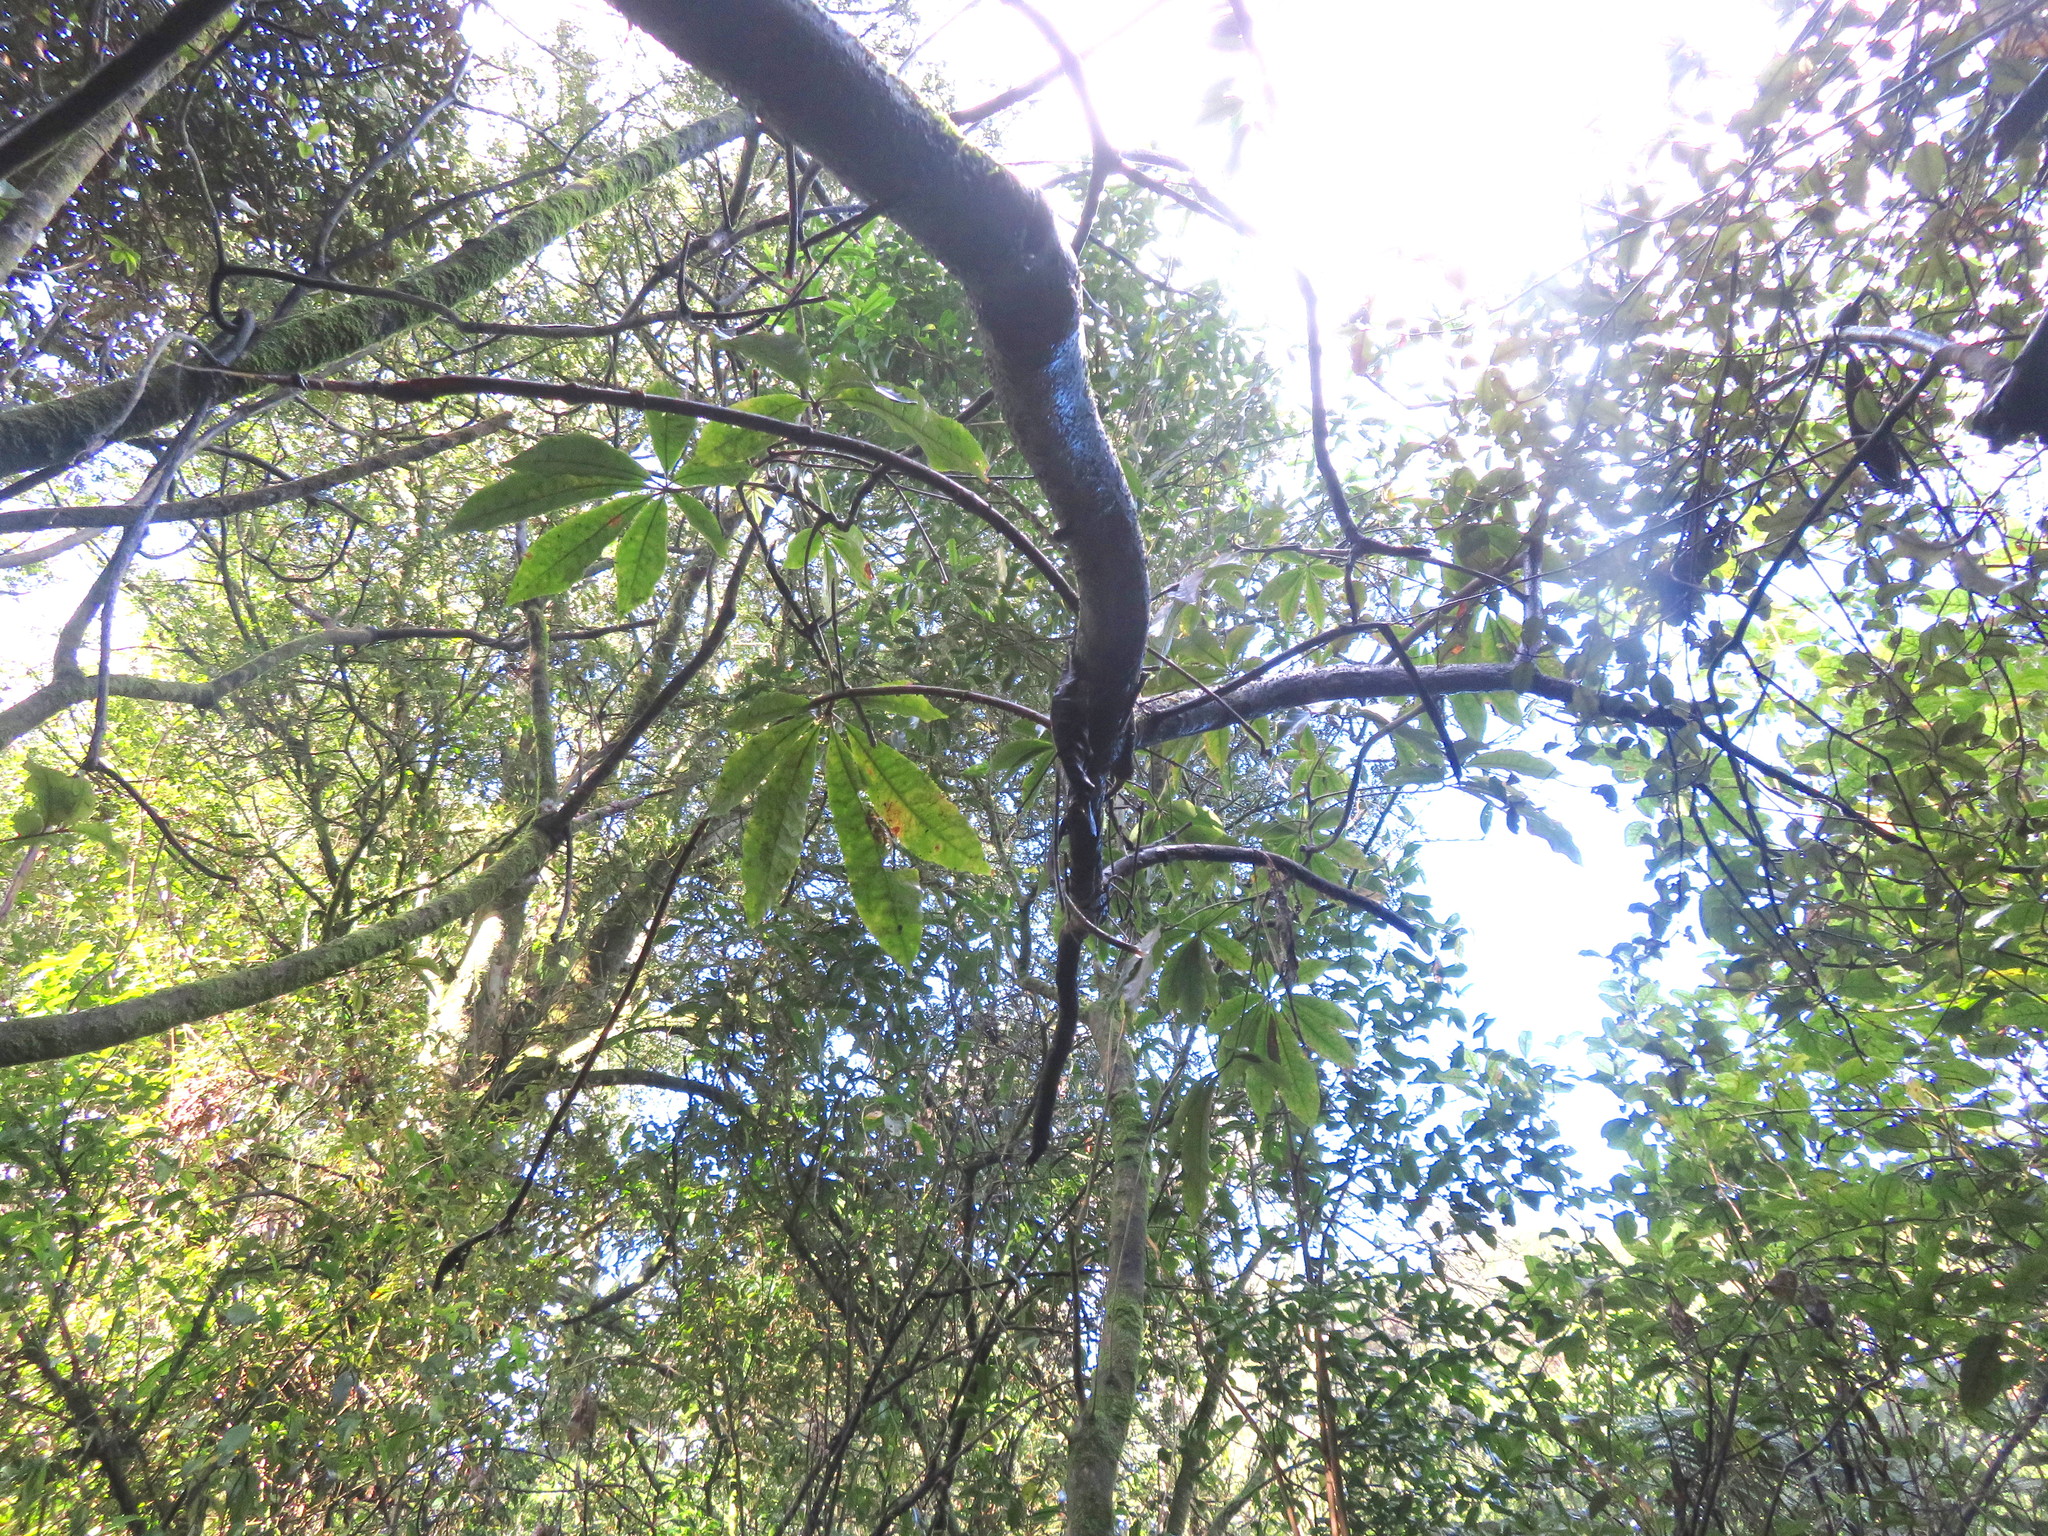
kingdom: Plantae
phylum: Tracheophyta
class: Magnoliopsida
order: Apiales
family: Araliaceae
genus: Schefflera
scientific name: Schefflera digitata
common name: Pate
